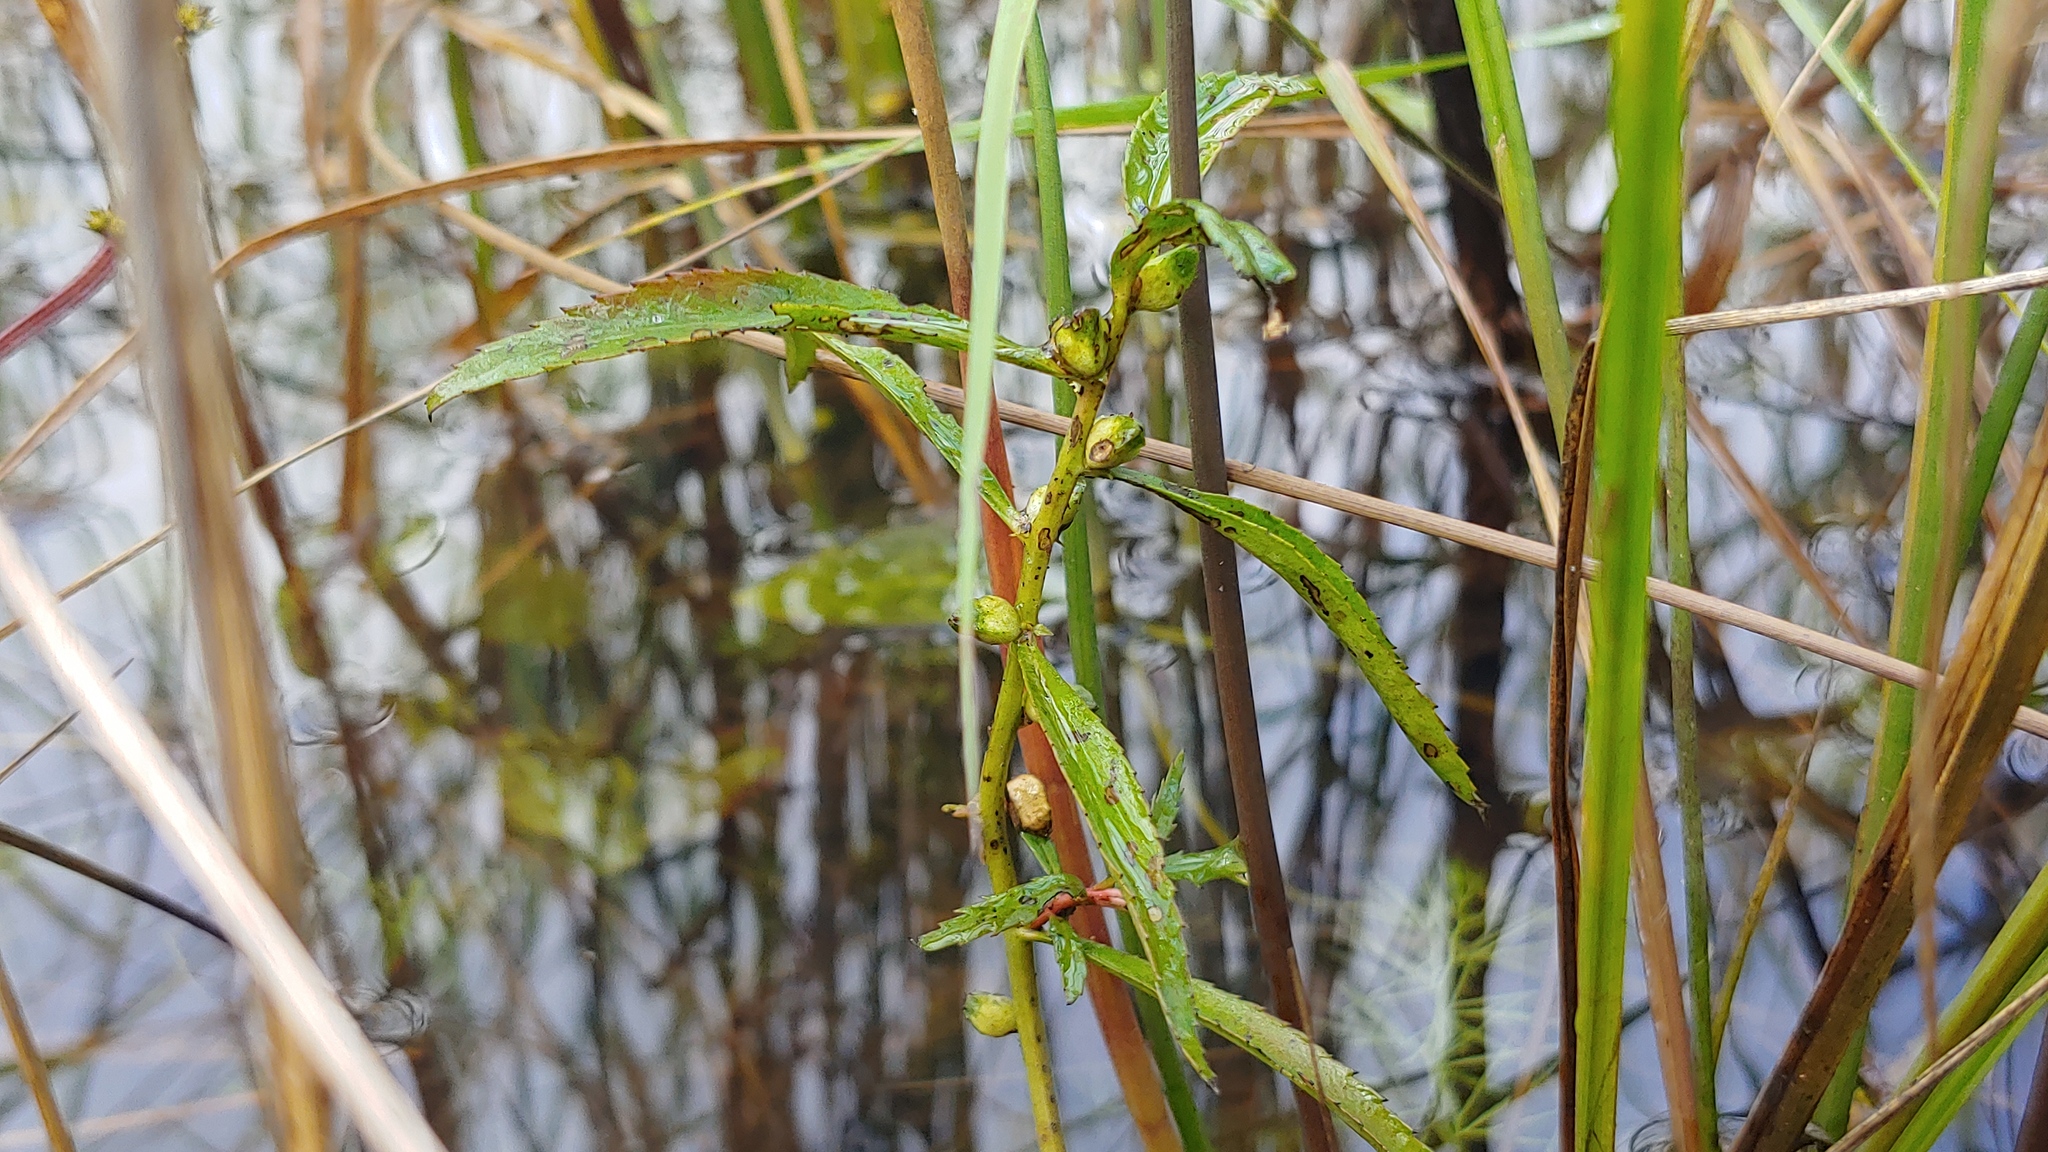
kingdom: Plantae
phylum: Tracheophyta
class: Magnoliopsida
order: Saxifragales
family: Haloragaceae
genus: Proserpinaca
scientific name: Proserpinaca palustris
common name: Marsh mermaidweed
